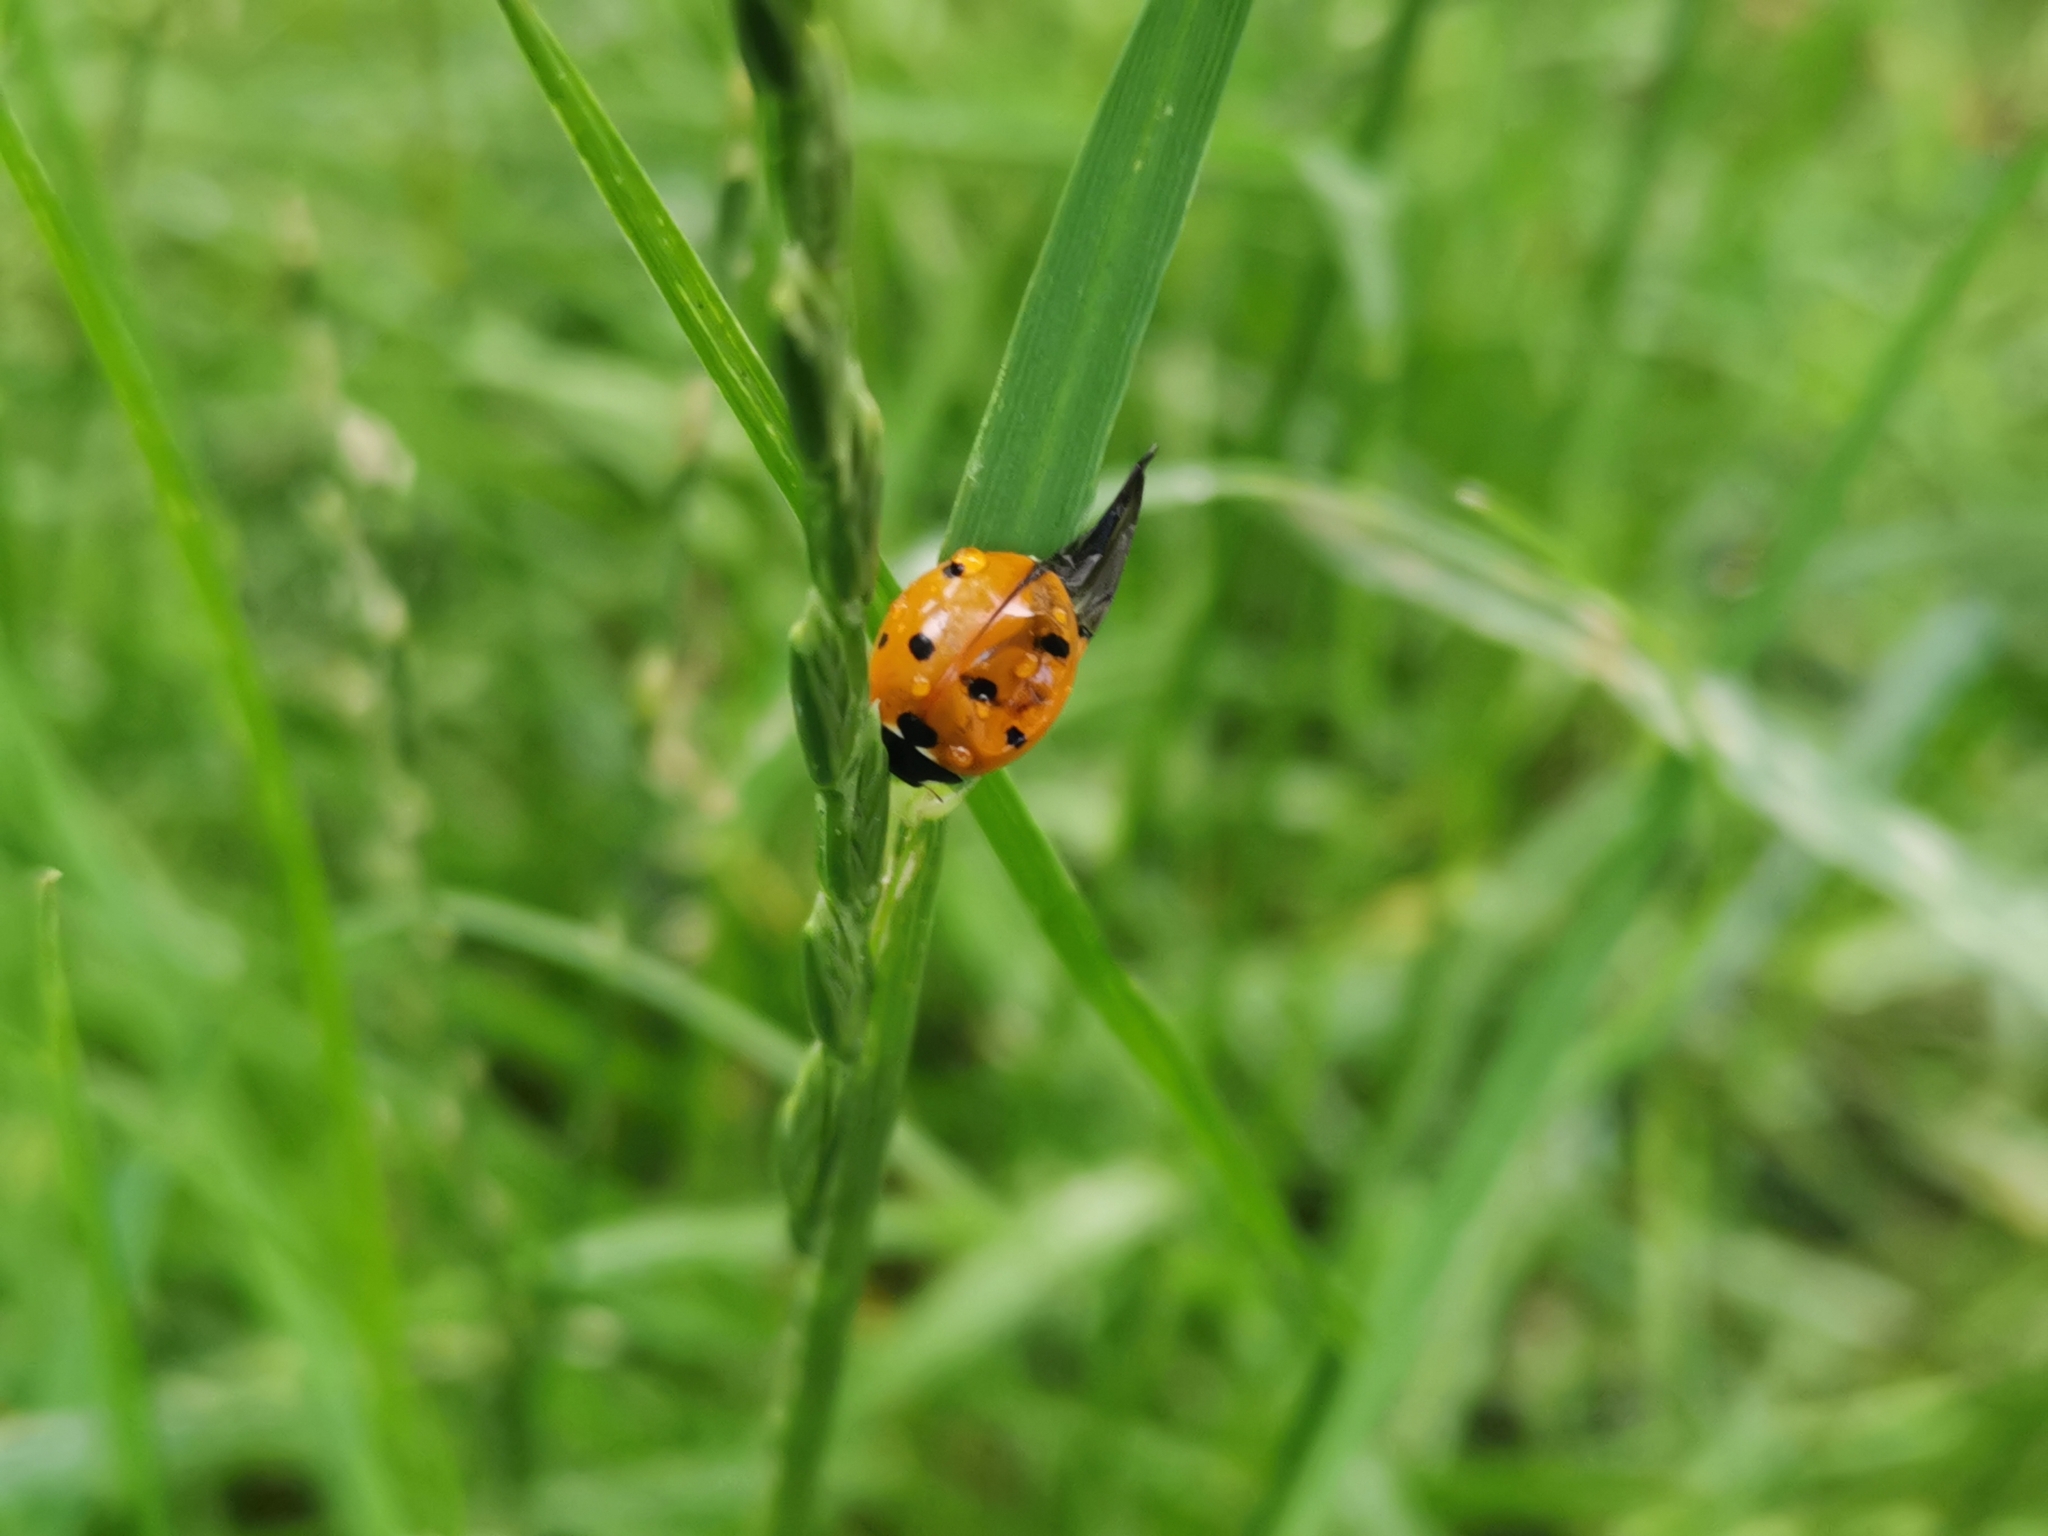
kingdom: Animalia
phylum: Arthropoda
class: Insecta
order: Coleoptera
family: Coccinellidae
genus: Coccinella
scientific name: Coccinella septempunctata
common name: Sevenspotted lady beetle
